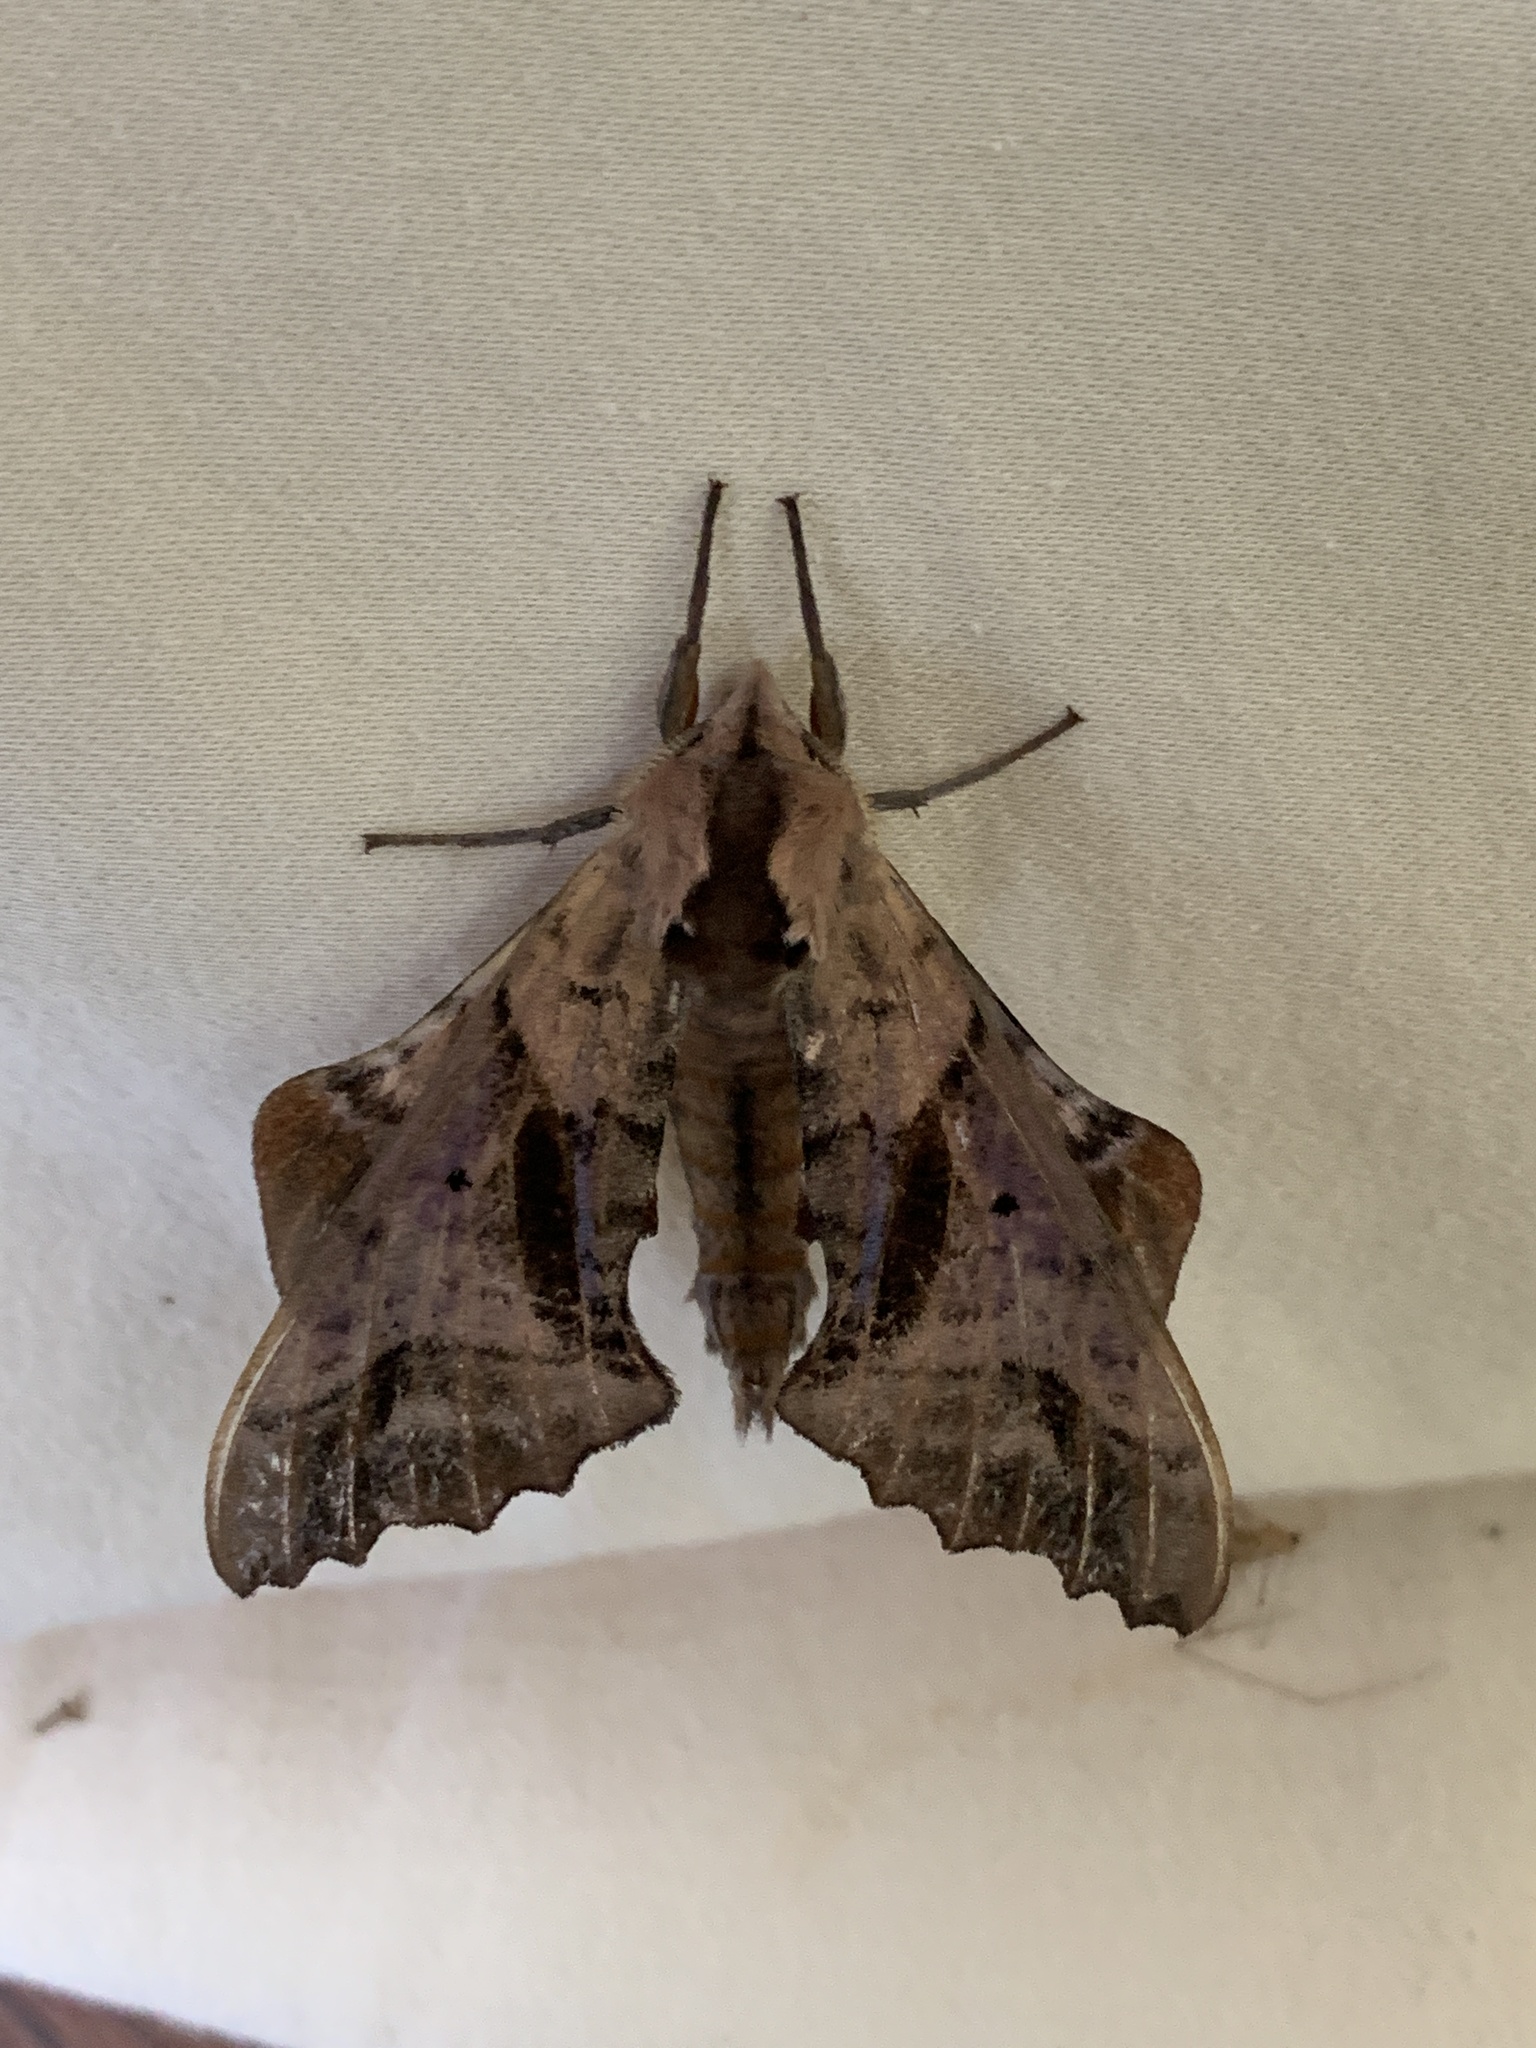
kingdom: Animalia
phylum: Arthropoda
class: Insecta
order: Lepidoptera
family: Sphingidae
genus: Paonias
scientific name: Paonias excaecata
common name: Blind-eyed sphinx
